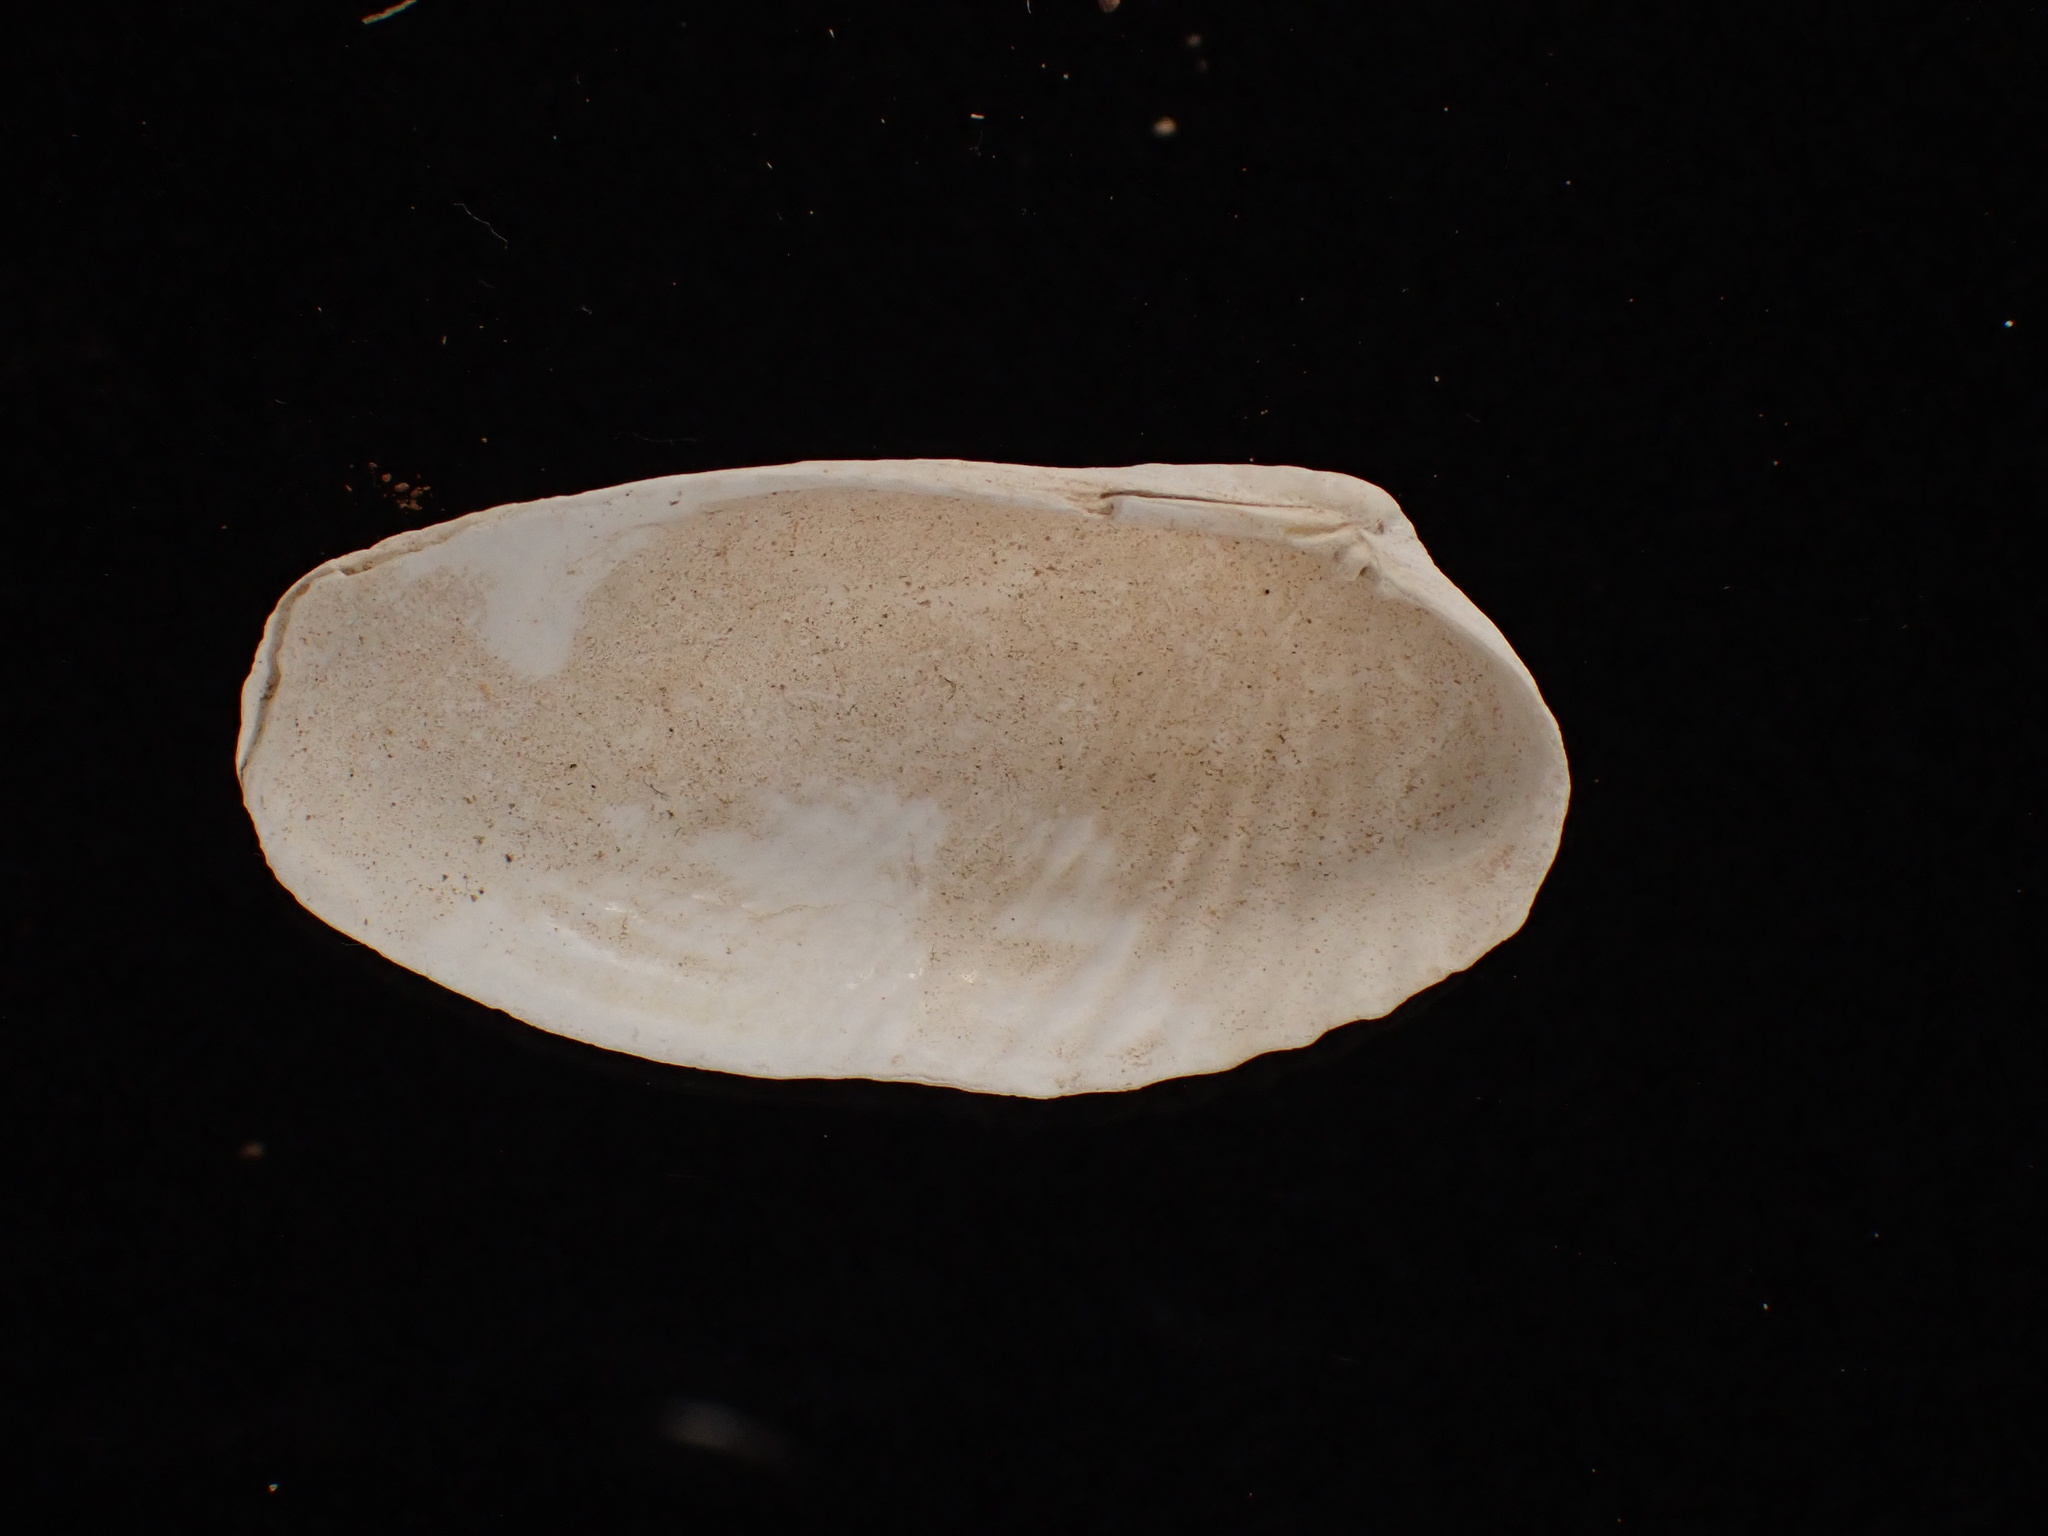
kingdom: Animalia
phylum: Mollusca
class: Bivalvia
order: Venerida
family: Veneridae
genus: Petricolaria
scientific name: Petricolaria pholadiformis
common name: American piddock
